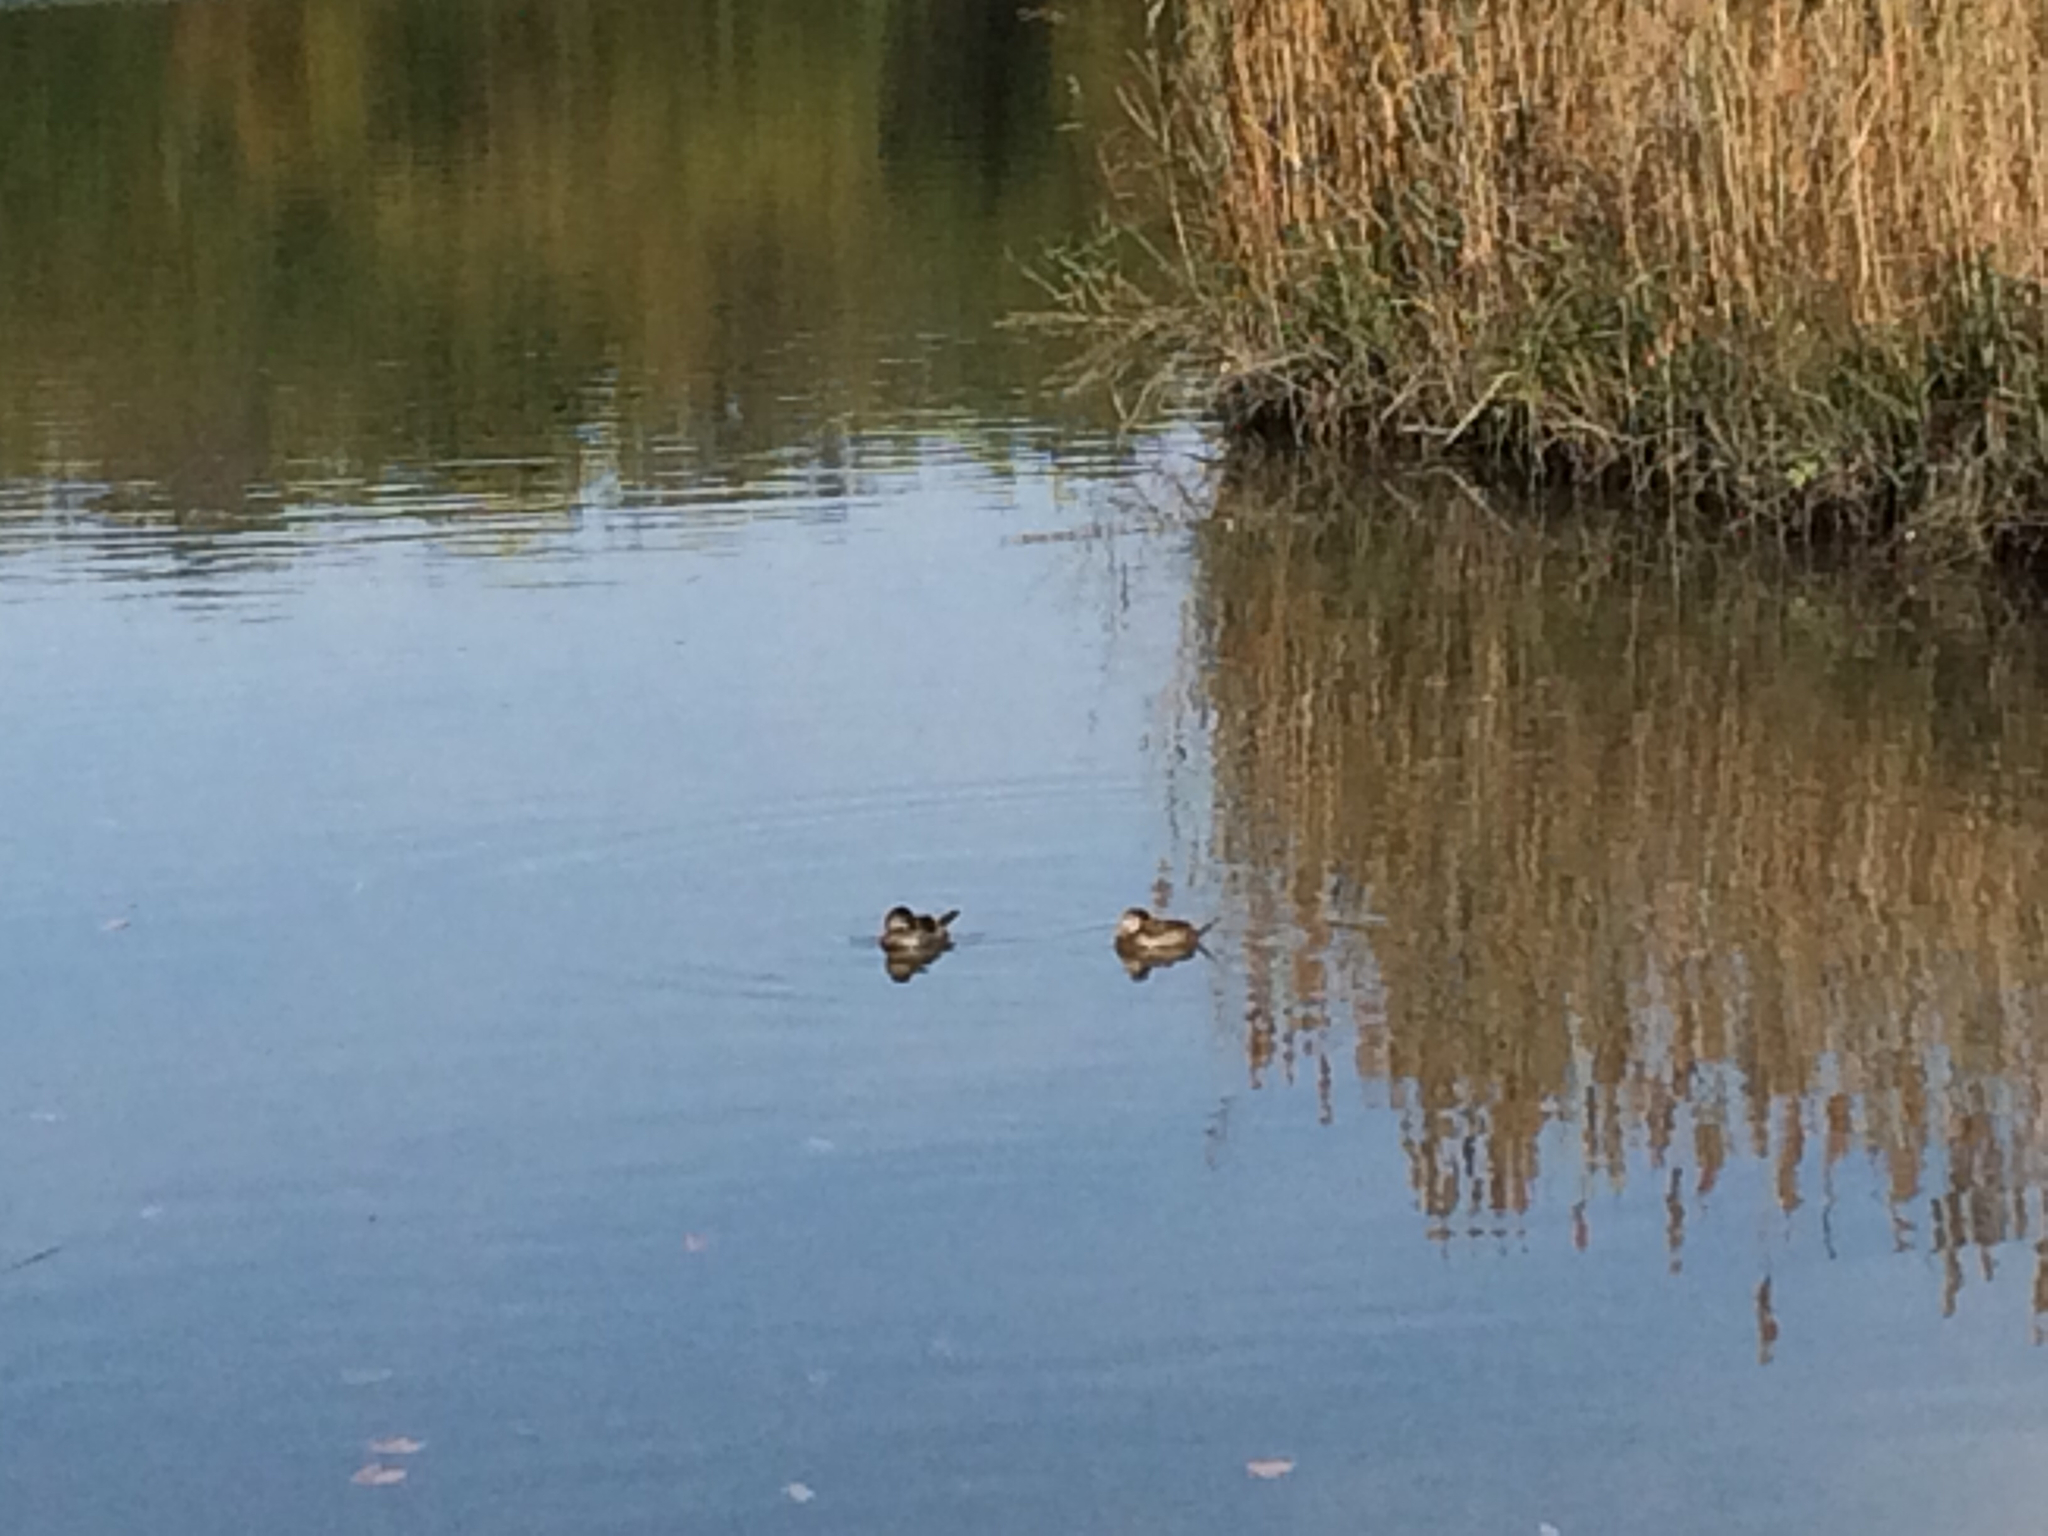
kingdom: Animalia
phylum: Chordata
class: Aves
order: Anseriformes
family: Anatidae
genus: Oxyura
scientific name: Oxyura jamaicensis
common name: Ruddy duck
